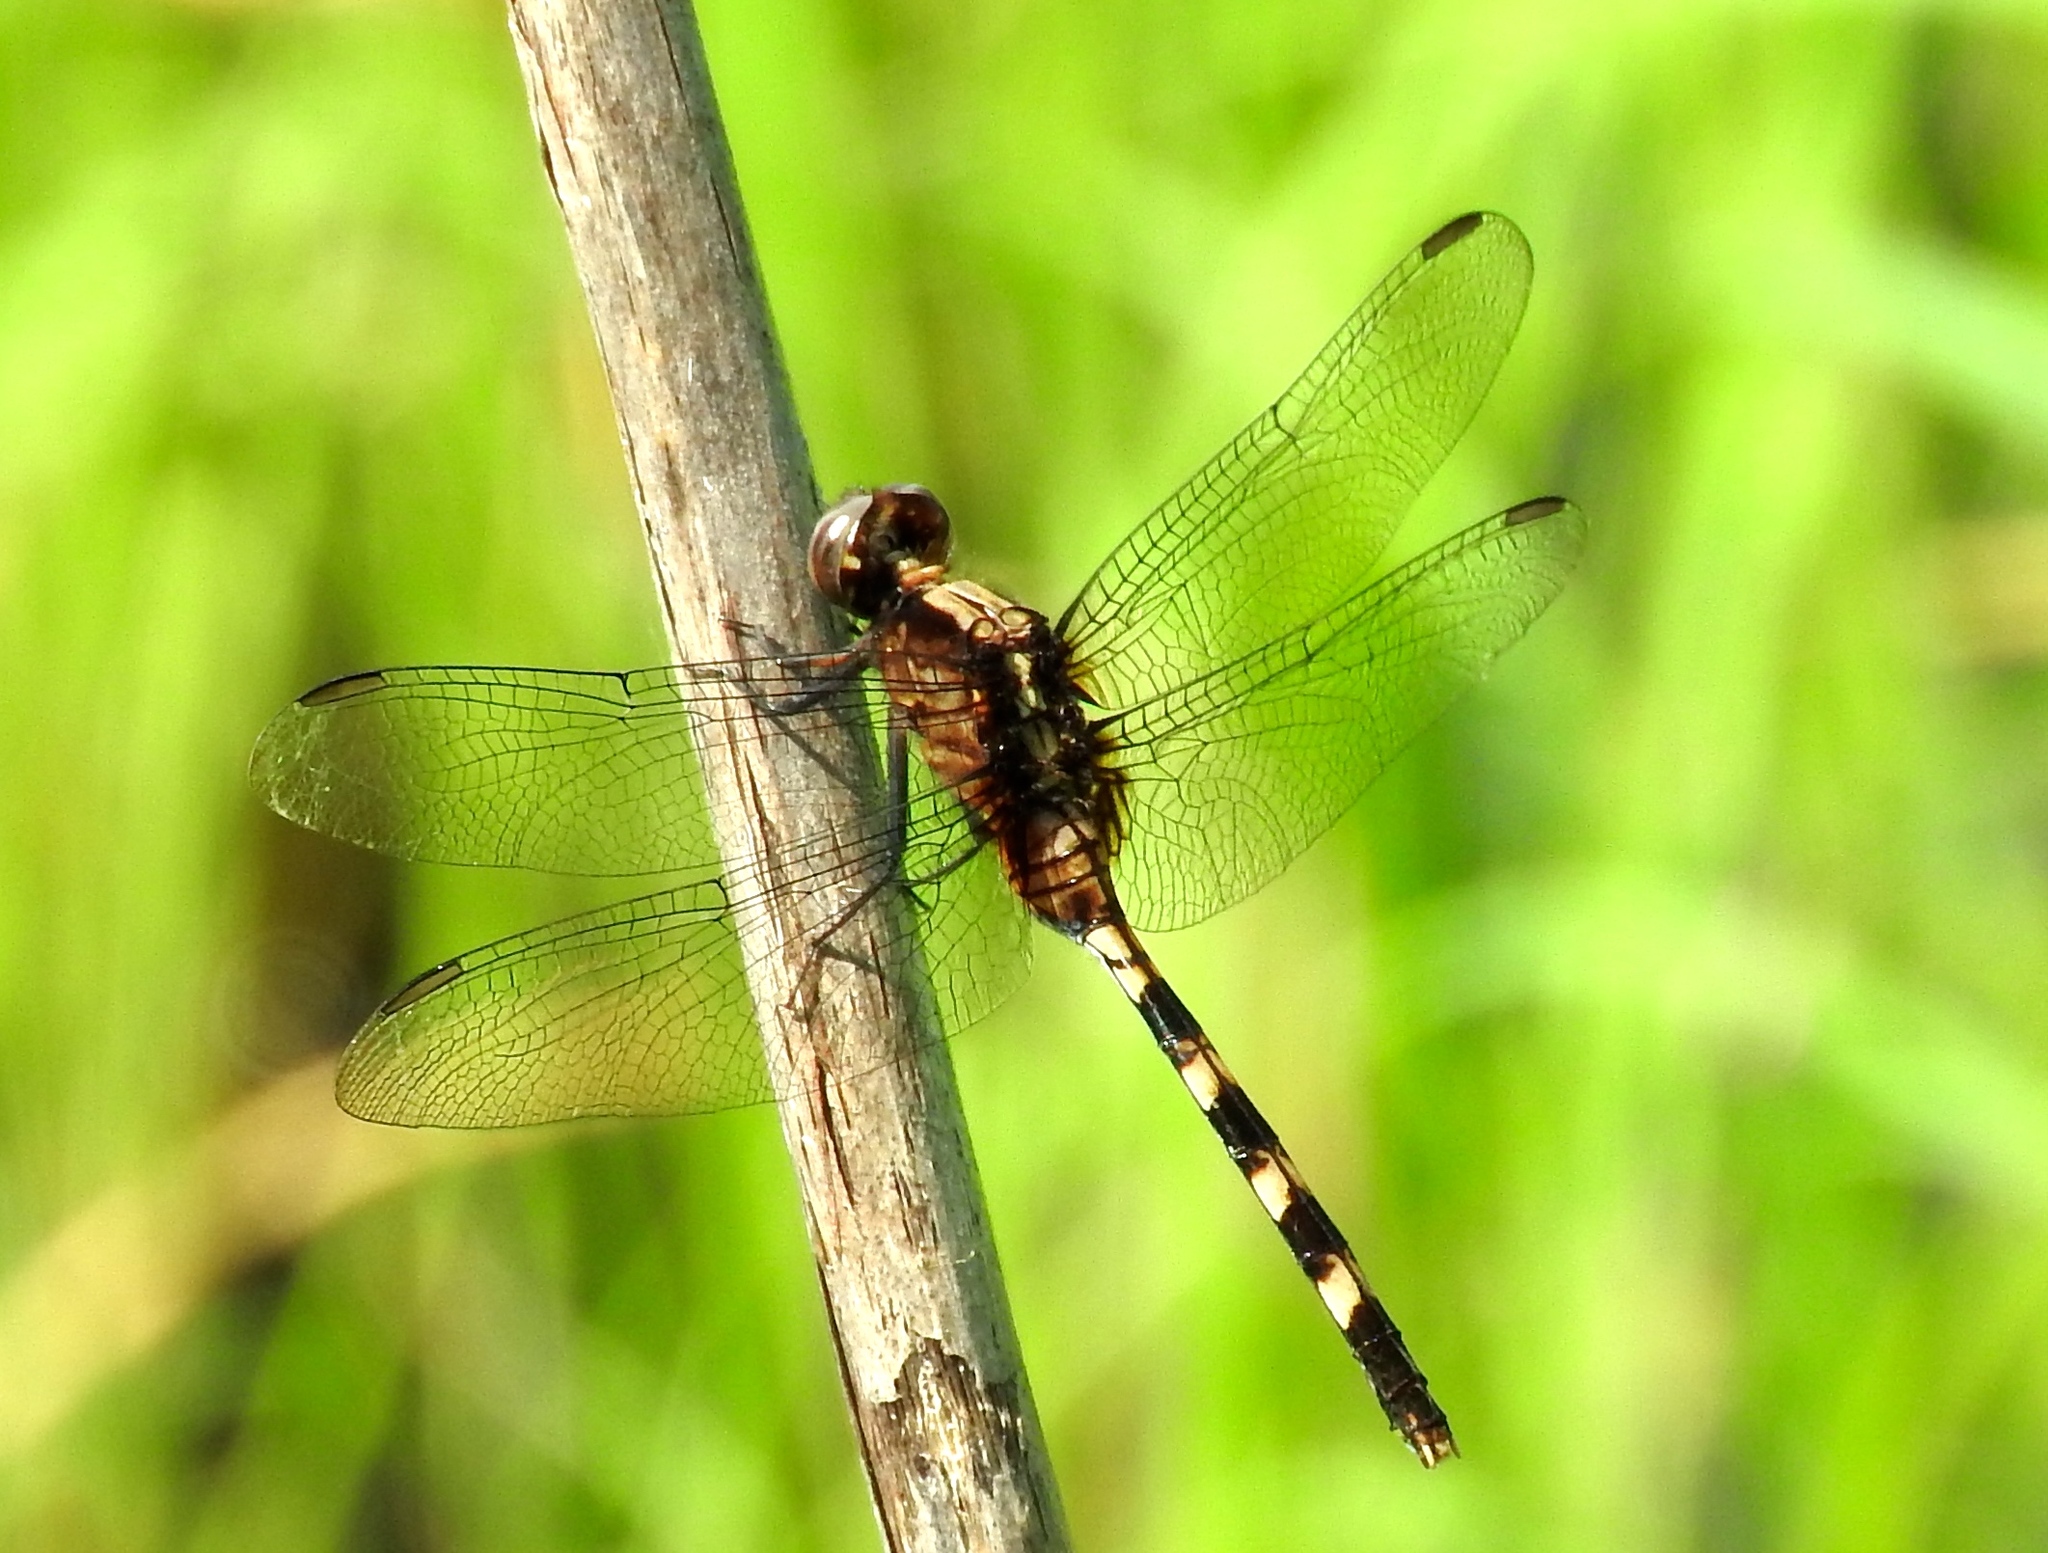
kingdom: Animalia
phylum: Arthropoda
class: Insecta
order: Odonata
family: Libellulidae
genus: Erythemis
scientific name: Erythemis plebeja
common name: Pin-tailed pondhawk
